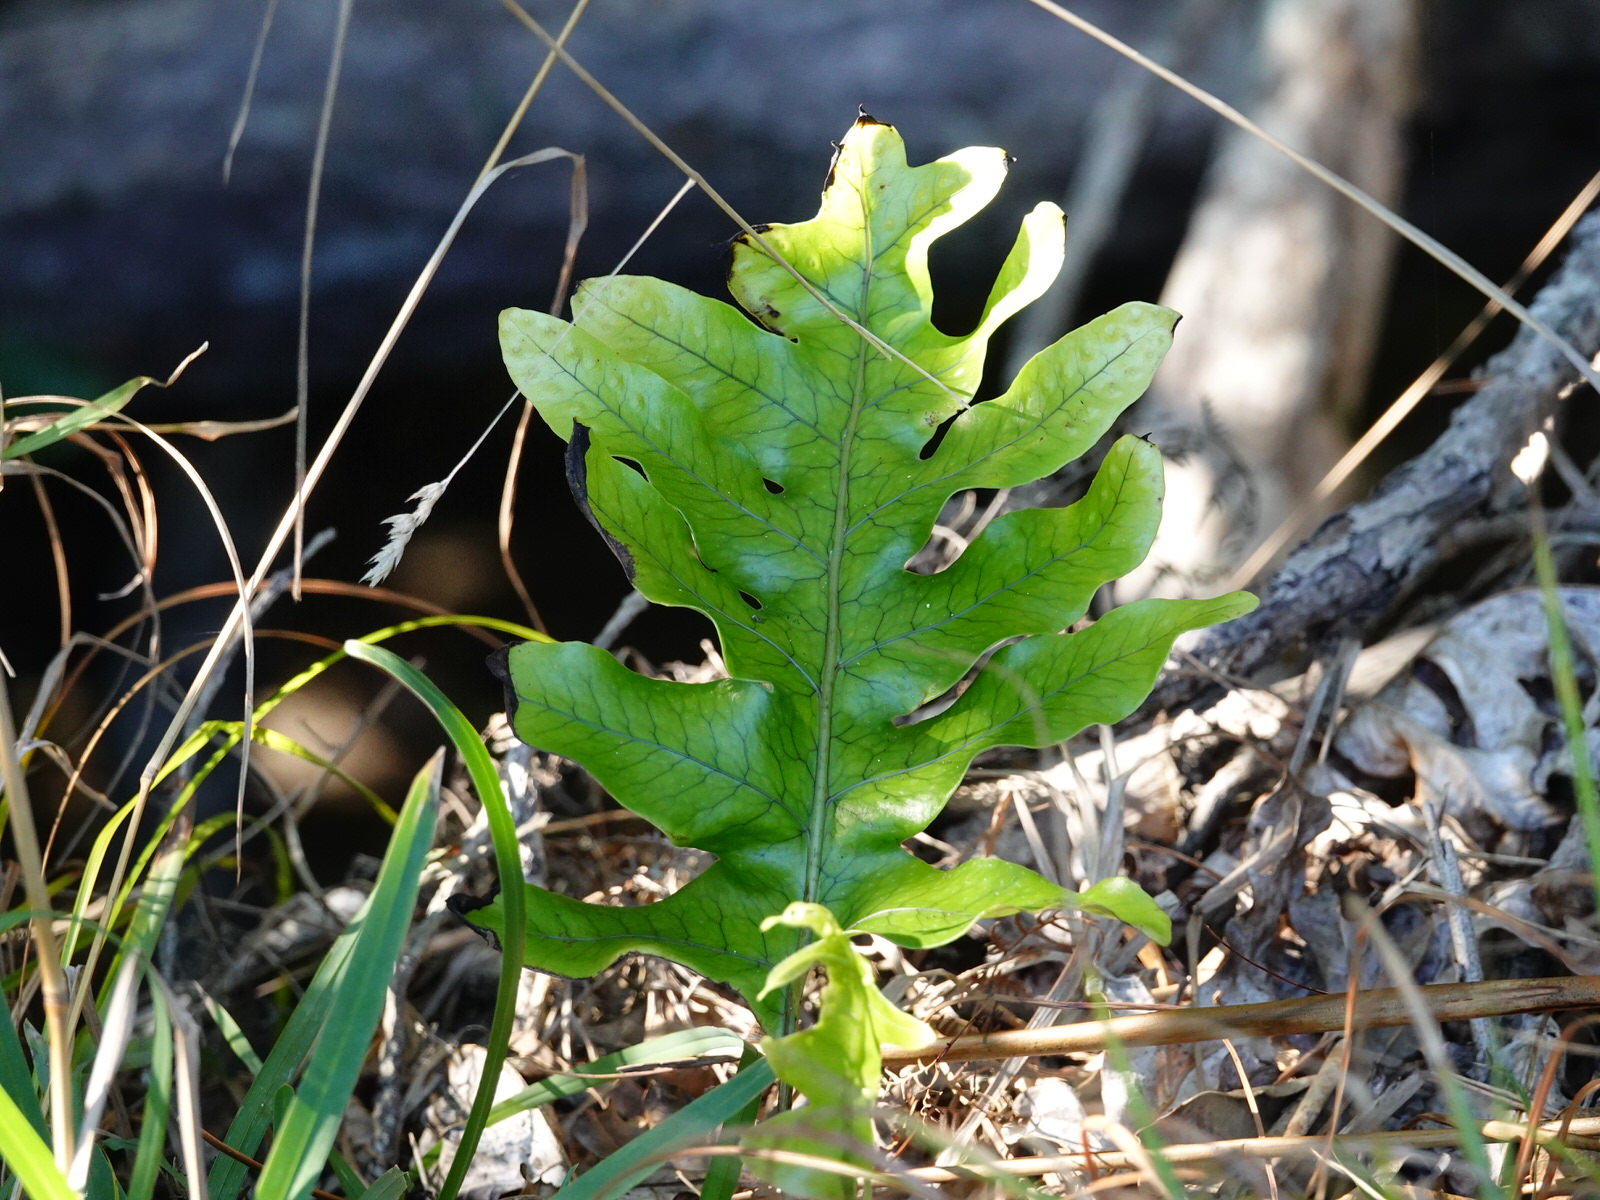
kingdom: Plantae
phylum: Tracheophyta
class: Polypodiopsida
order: Polypodiales
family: Polypodiaceae
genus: Lecanopteris
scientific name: Lecanopteris pustulata
